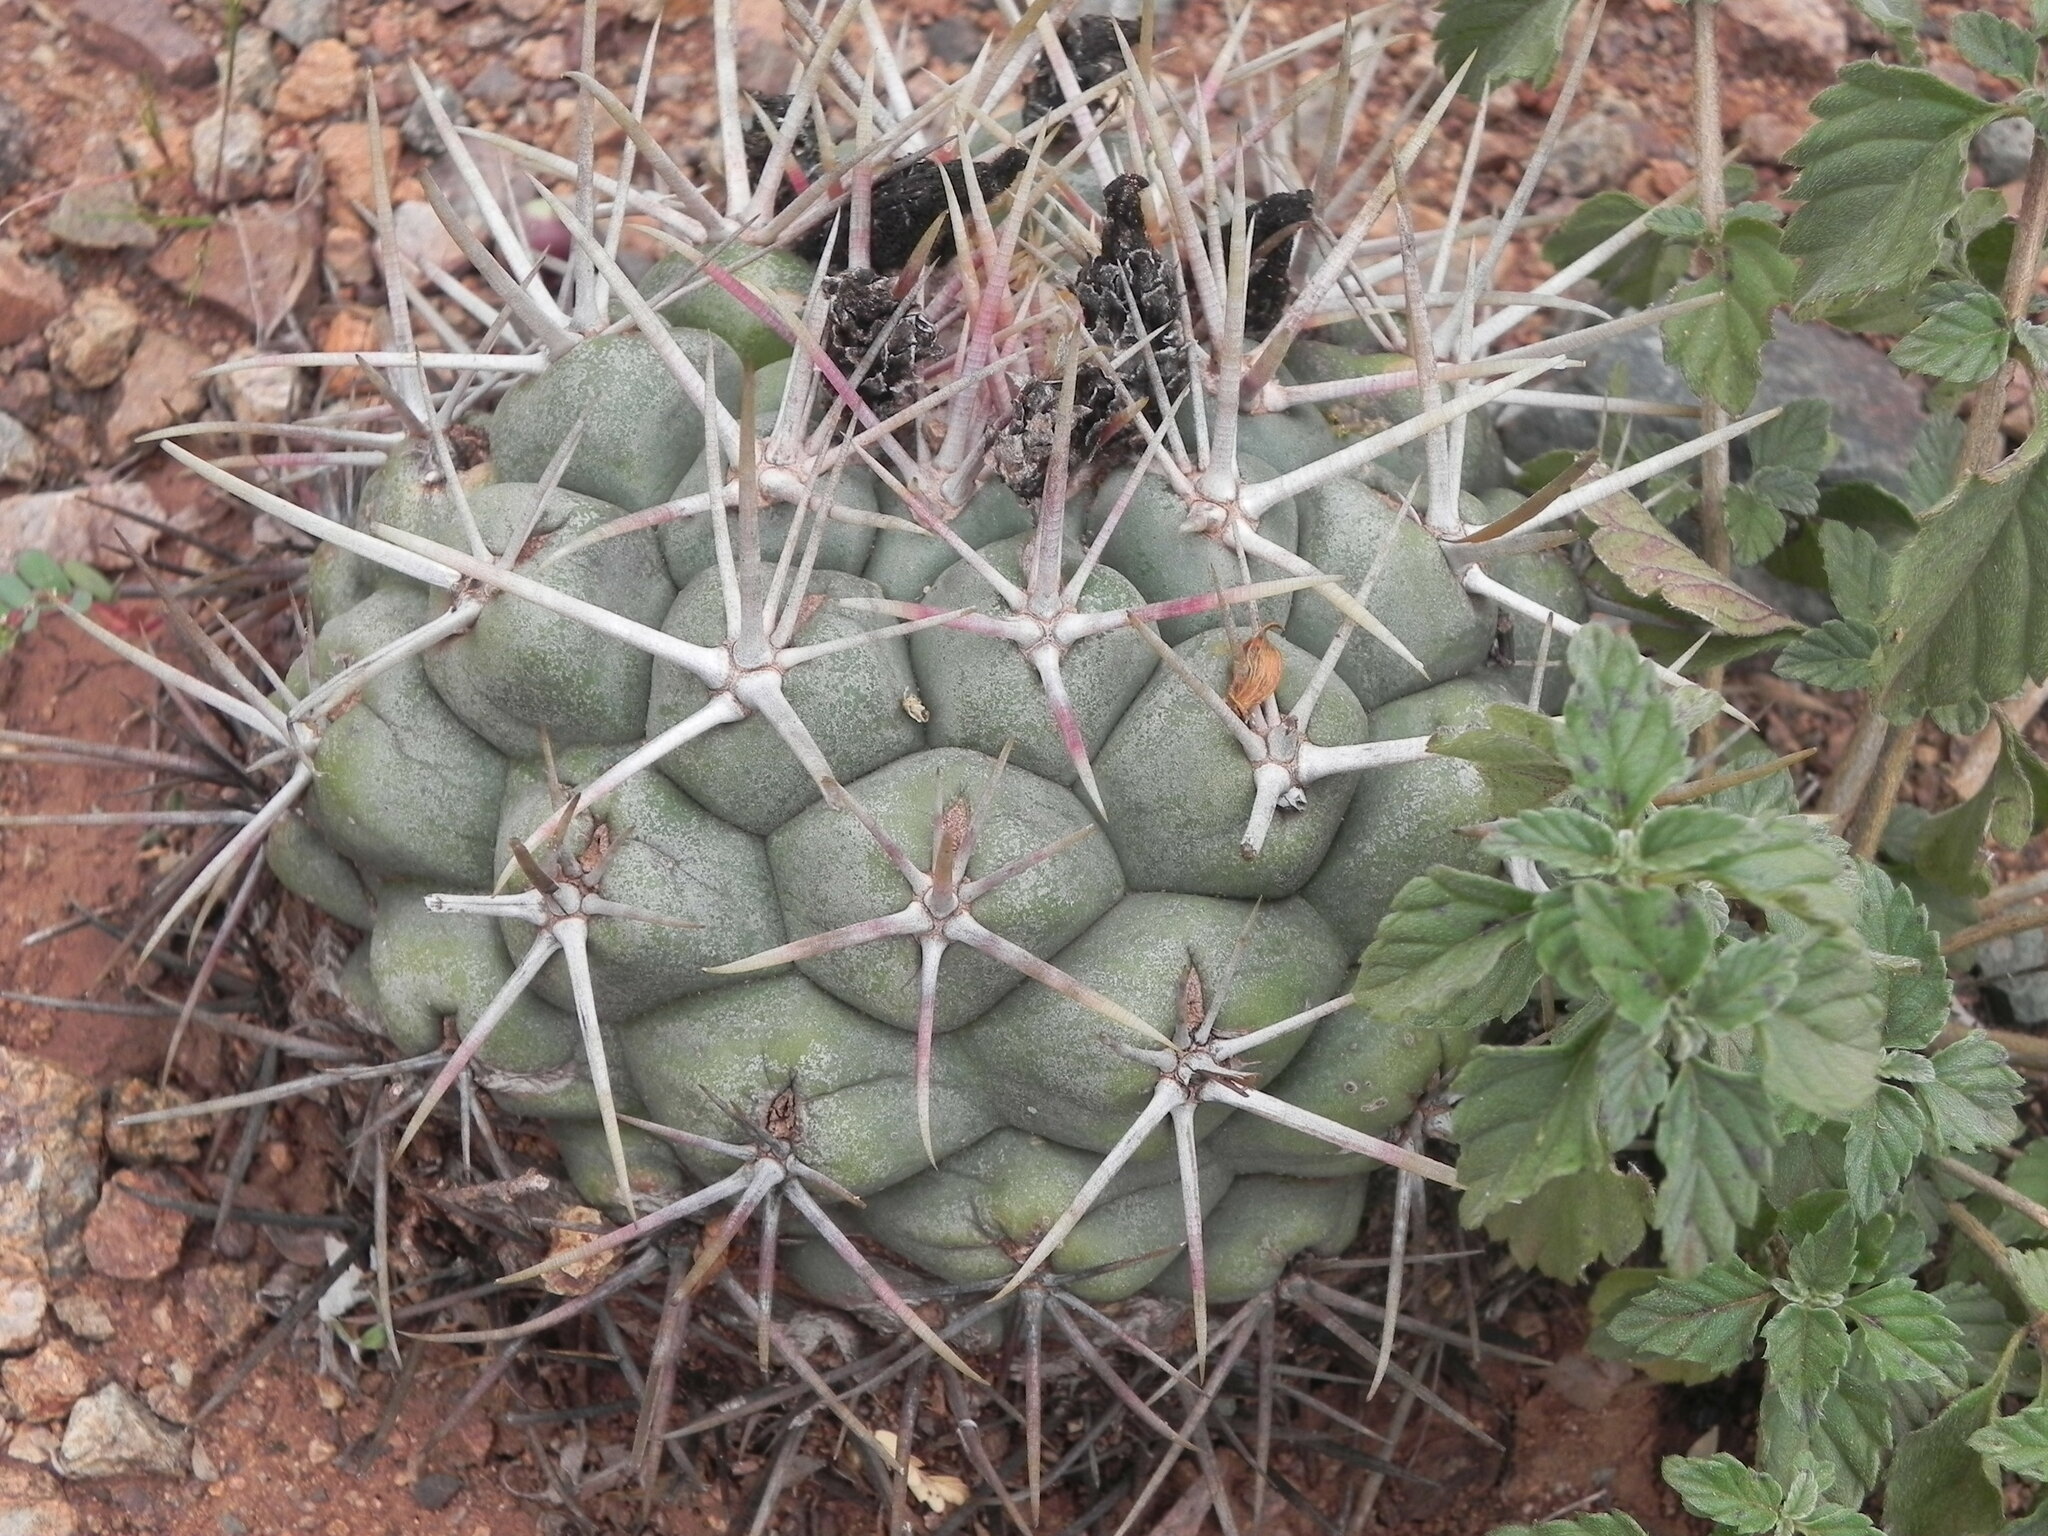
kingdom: Plantae
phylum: Tracheophyta
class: Magnoliopsida
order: Caryophyllales
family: Cactaceae
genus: Thelocactus
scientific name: Thelocactus hexaedrophorus
